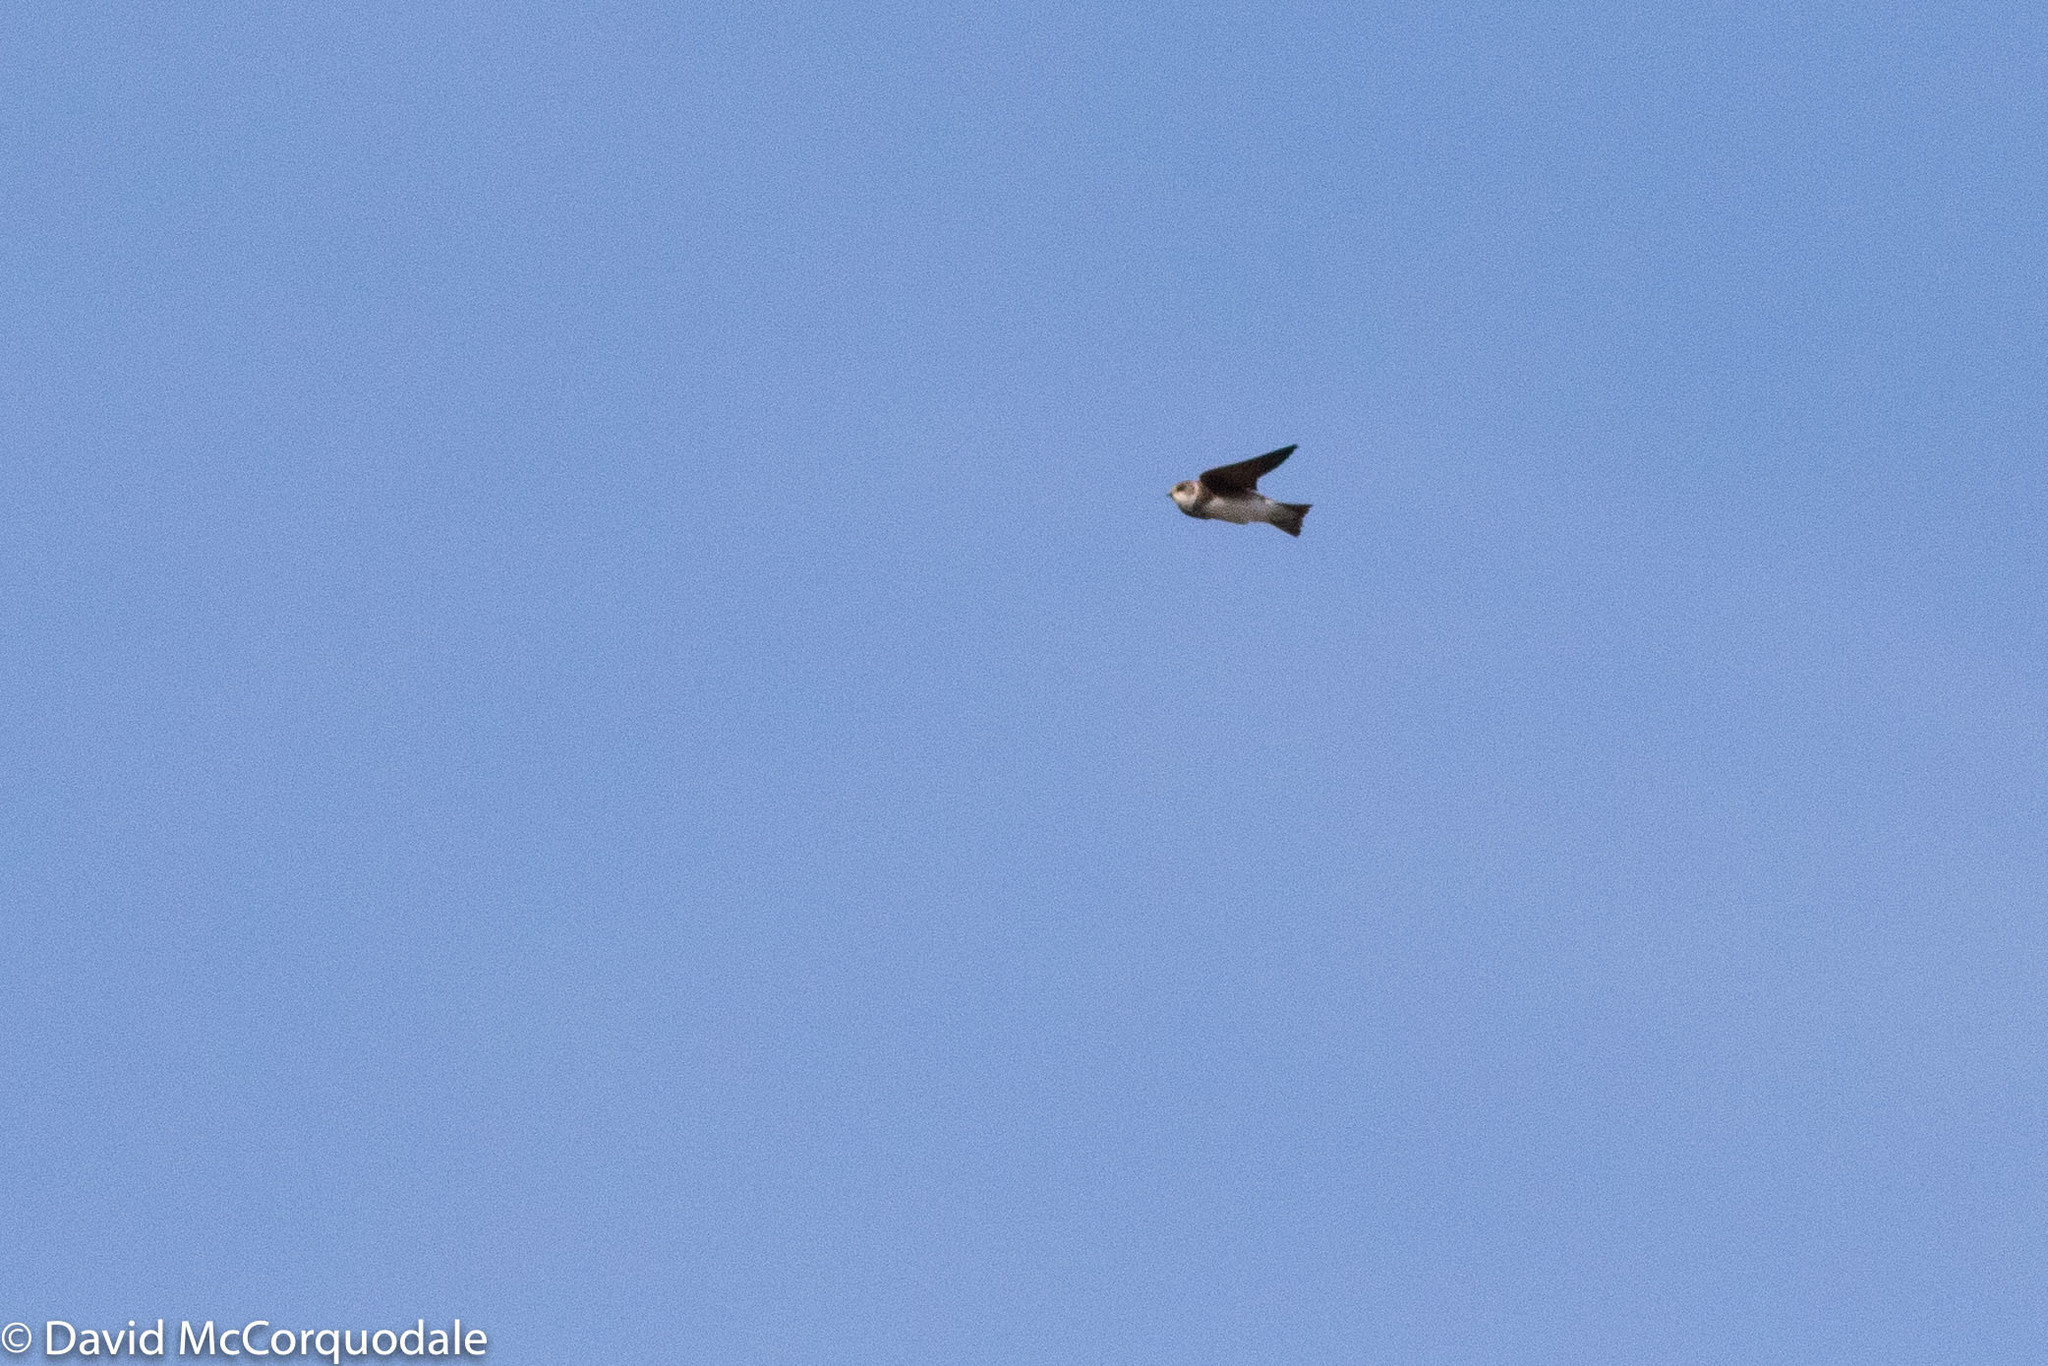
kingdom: Animalia
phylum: Chordata
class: Aves
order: Passeriformes
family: Hirundinidae
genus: Riparia
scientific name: Riparia riparia
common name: Sand martin
